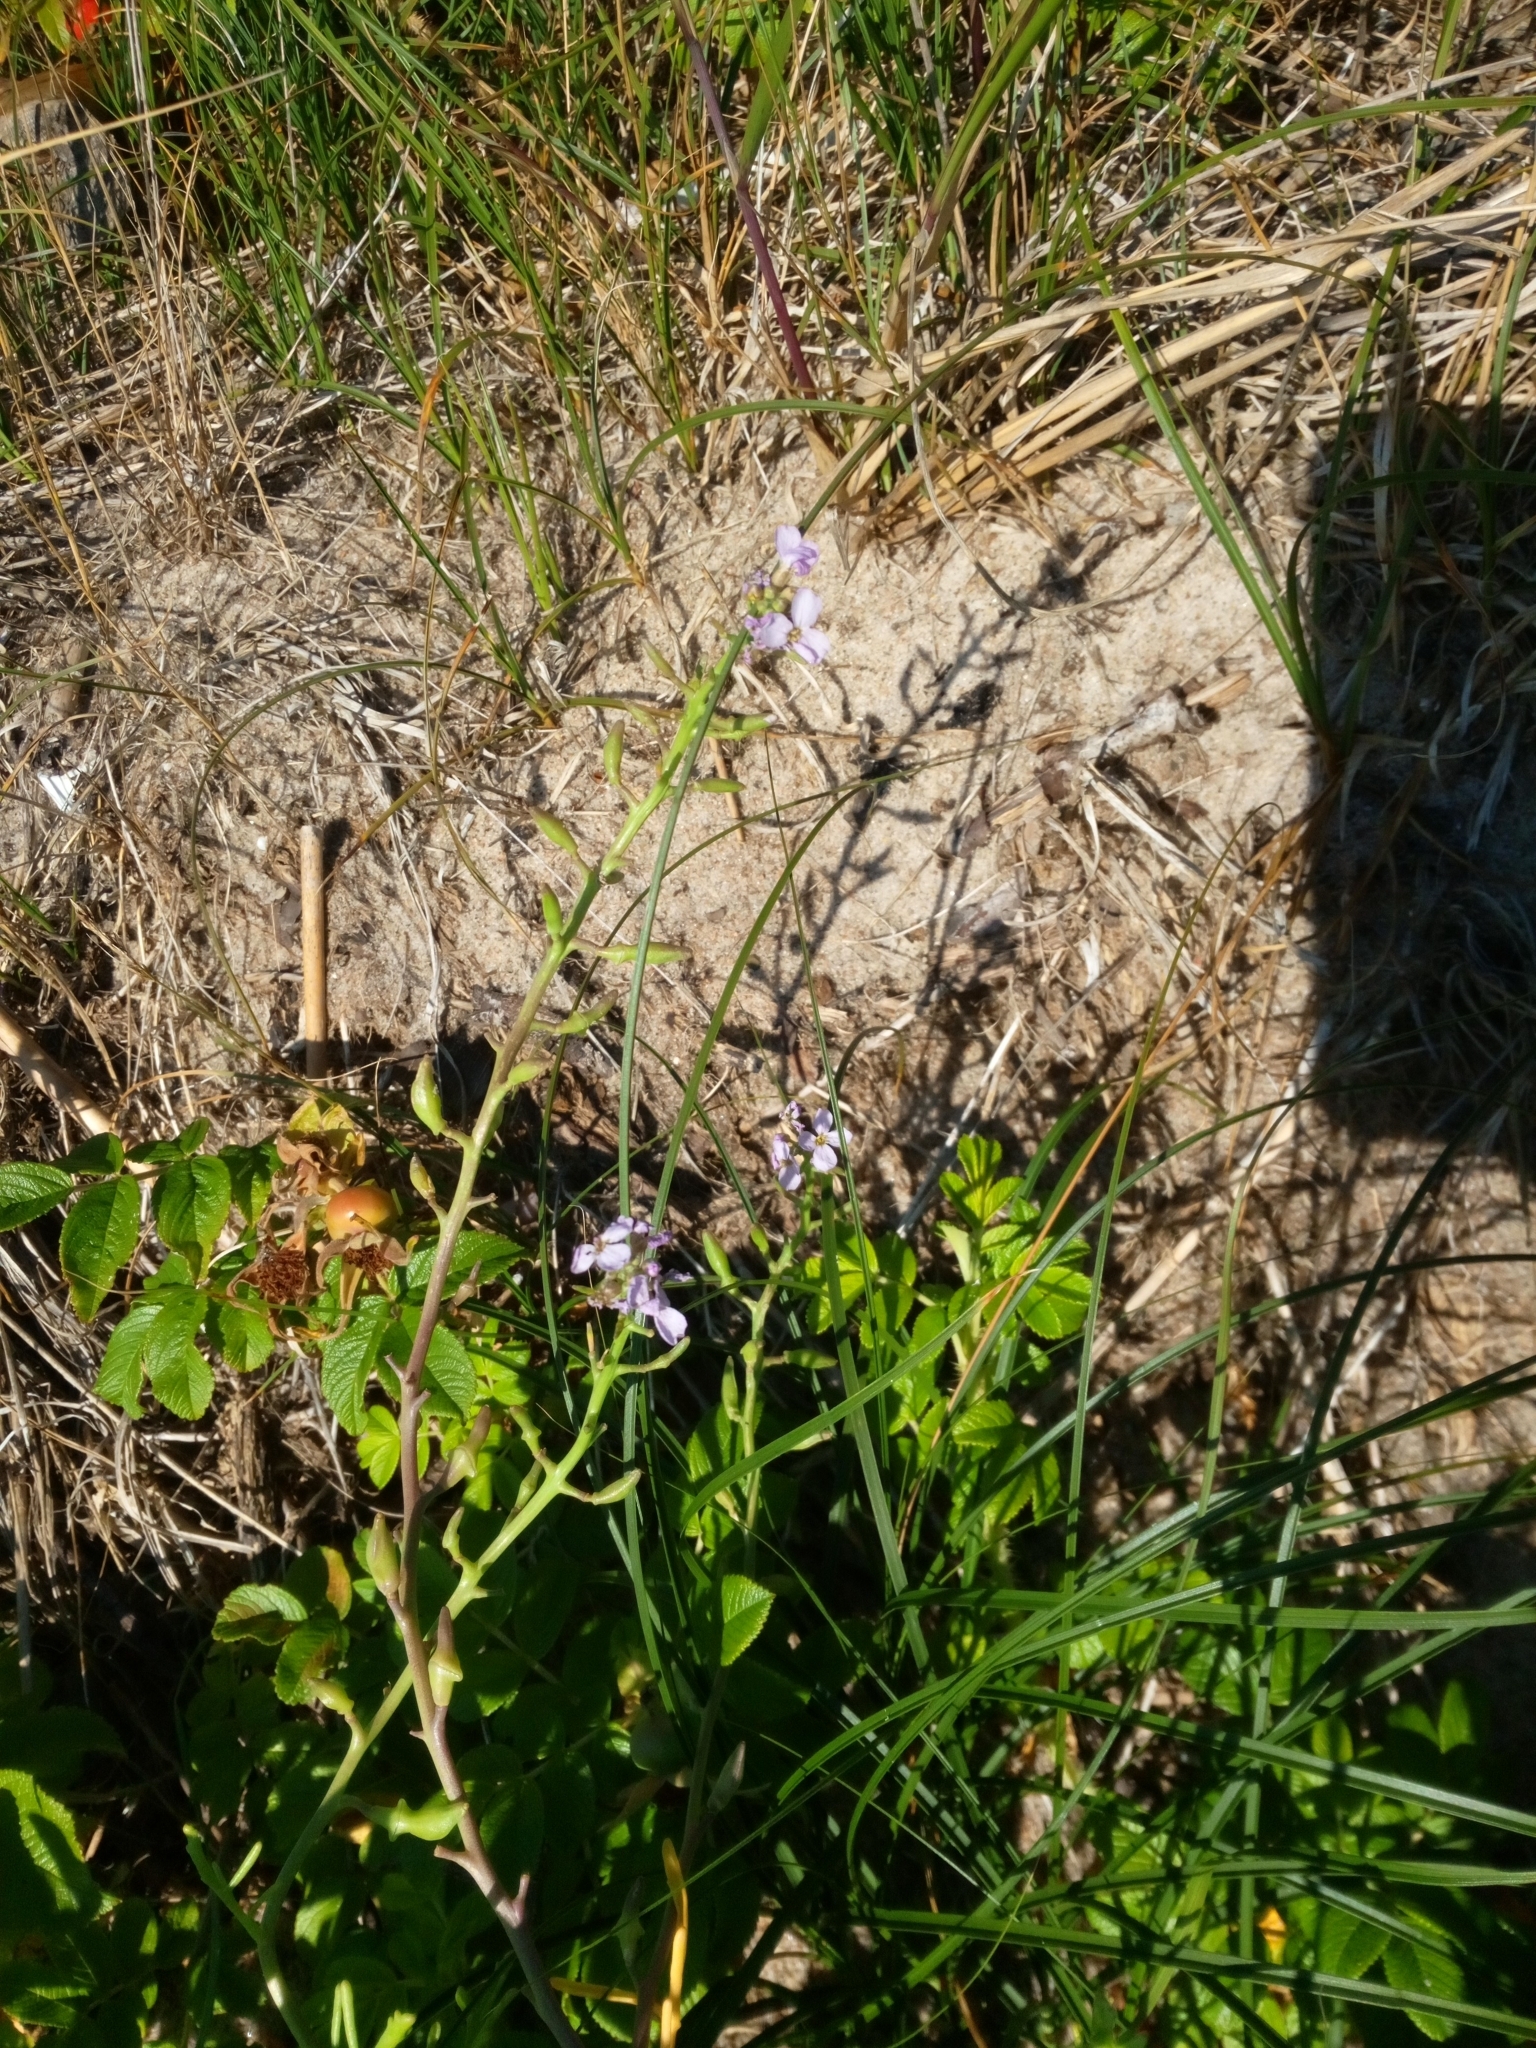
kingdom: Plantae
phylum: Tracheophyta
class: Magnoliopsida
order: Brassicales
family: Brassicaceae
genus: Cakile
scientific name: Cakile maritima
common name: Sea rocket
